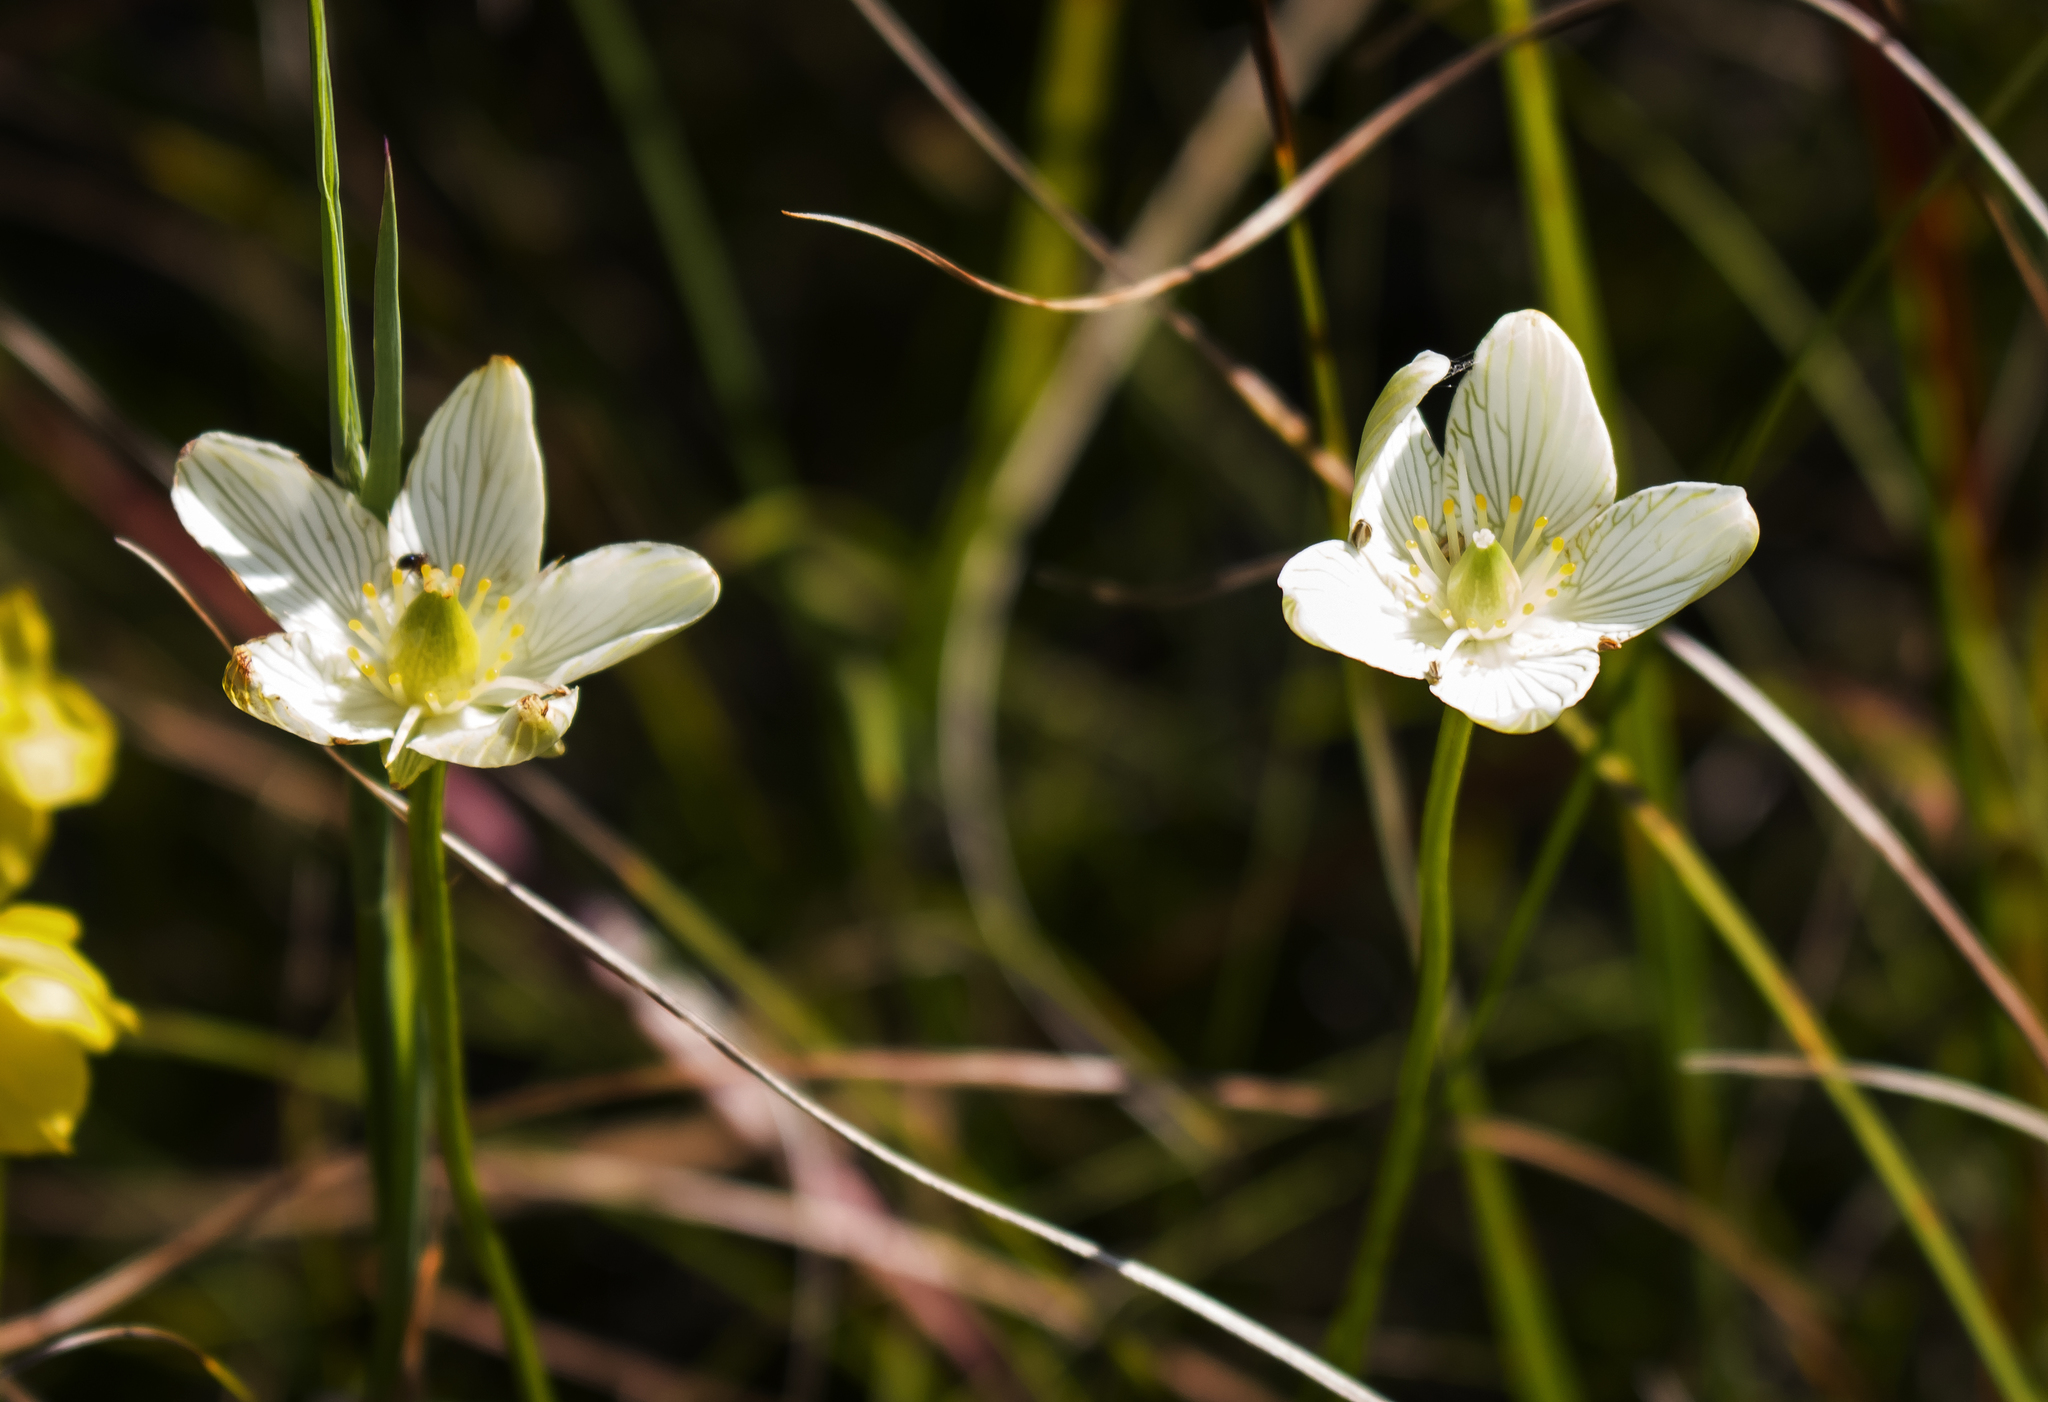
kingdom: Plantae
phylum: Tracheophyta
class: Magnoliopsida
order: Celastrales
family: Parnassiaceae
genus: Parnassia
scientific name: Parnassia glauca
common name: American grass-of-parnassus
